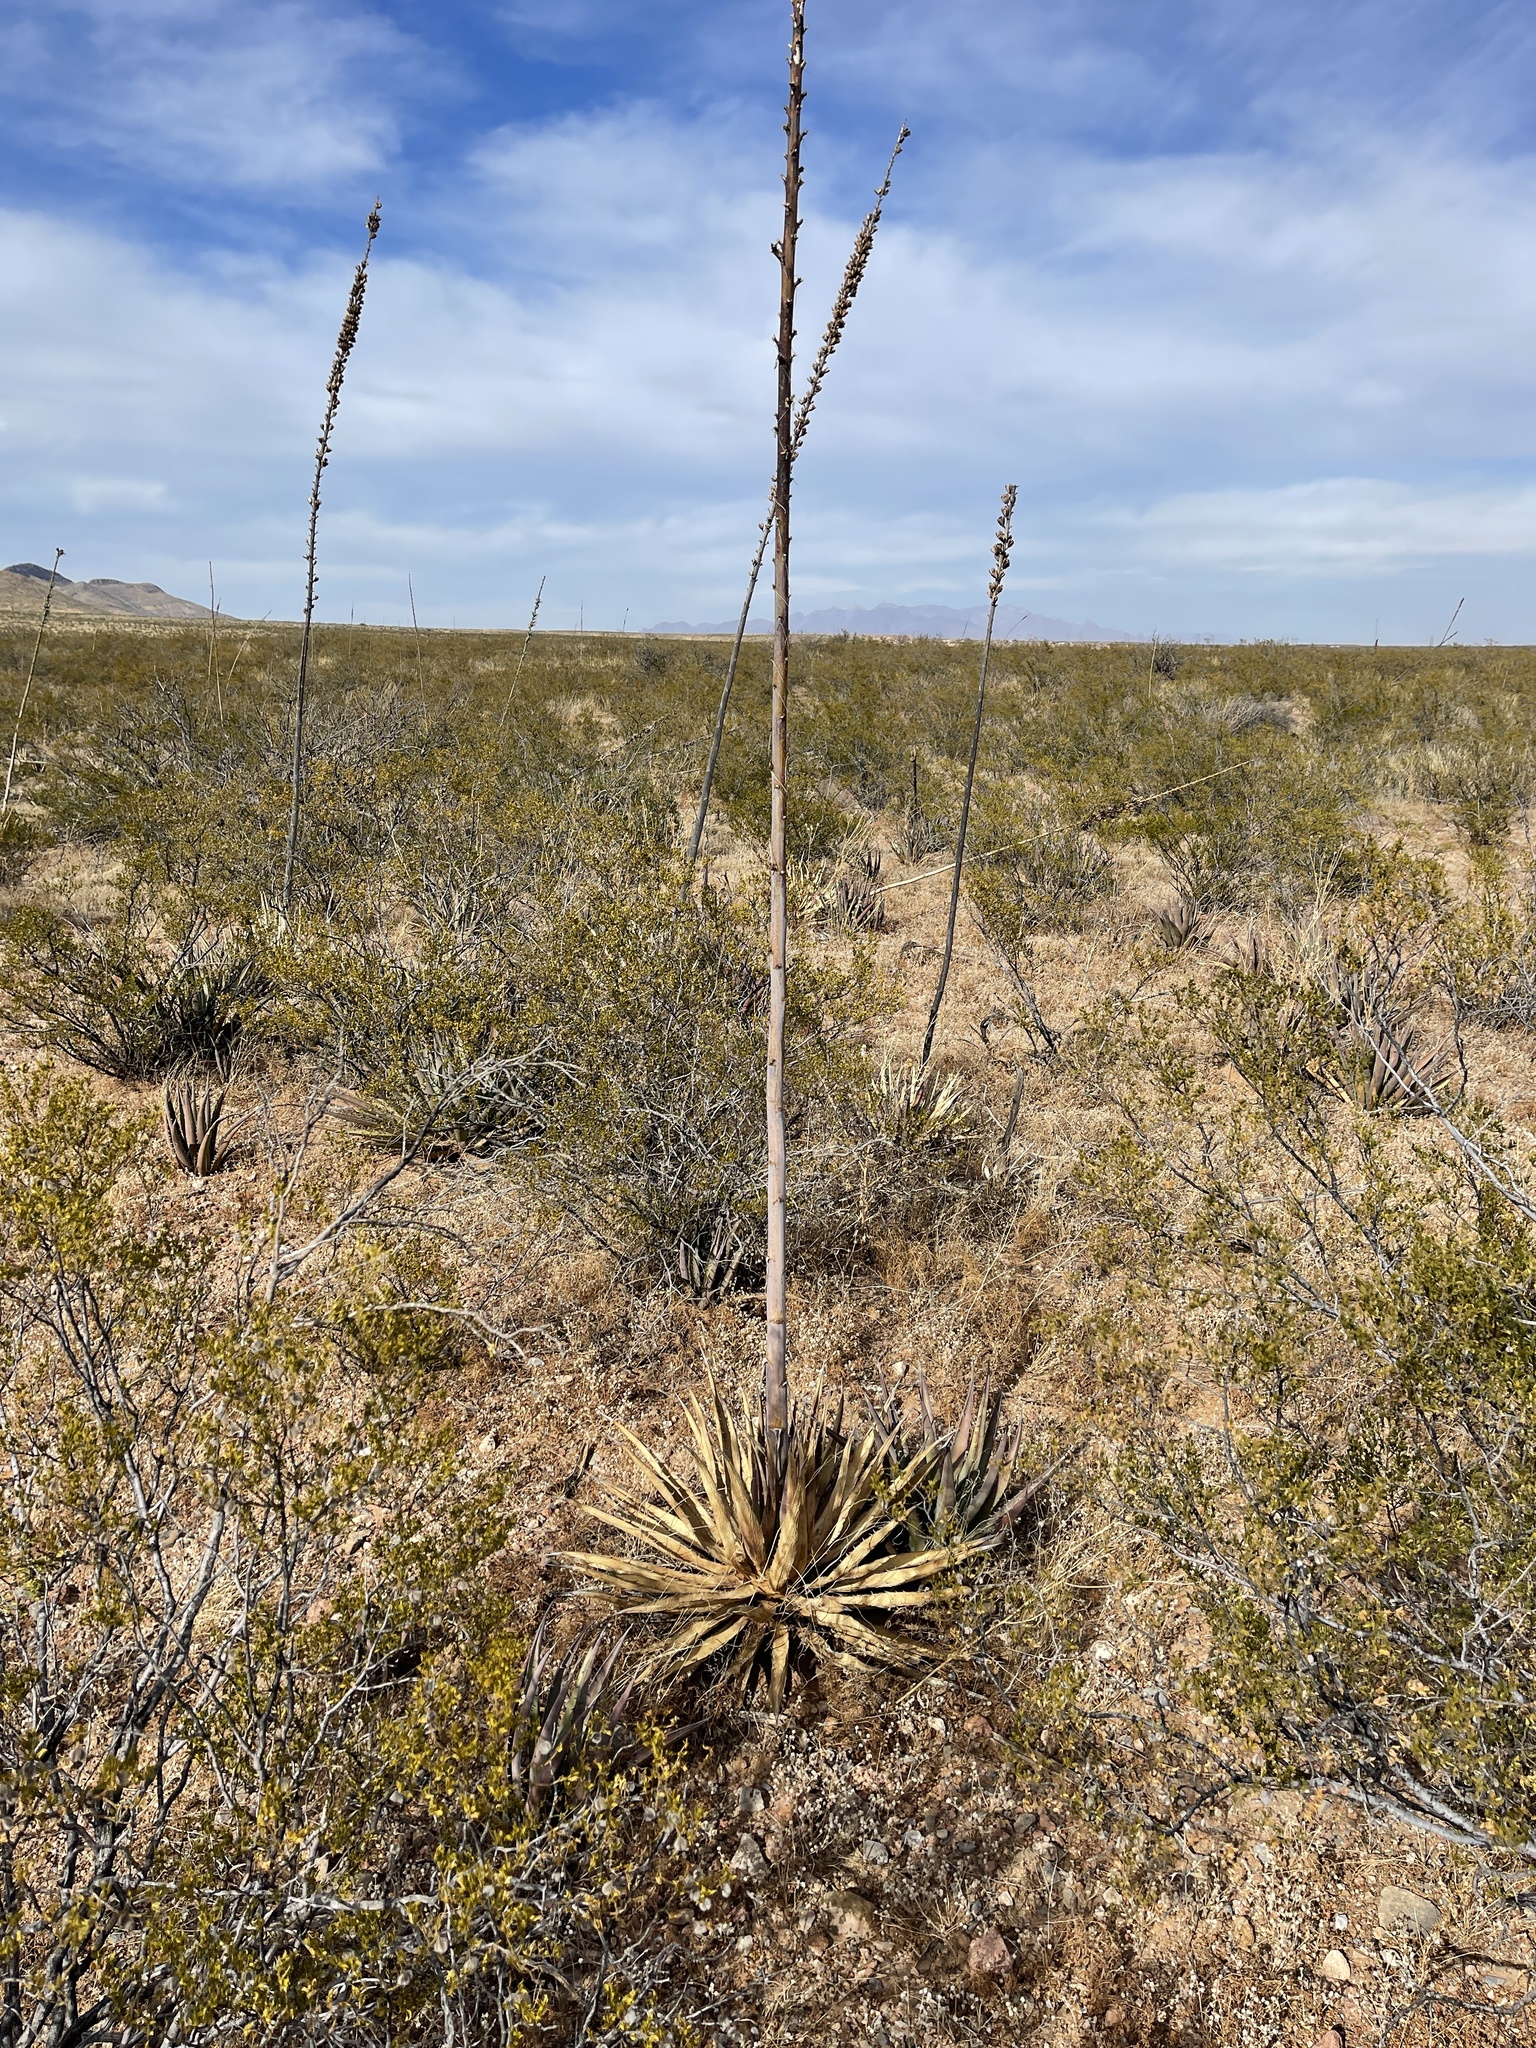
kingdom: Plantae
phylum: Tracheophyta
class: Liliopsida
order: Asparagales
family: Asparagaceae
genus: Agave
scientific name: Agave lechuguilla
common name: Lecheguilla agave
